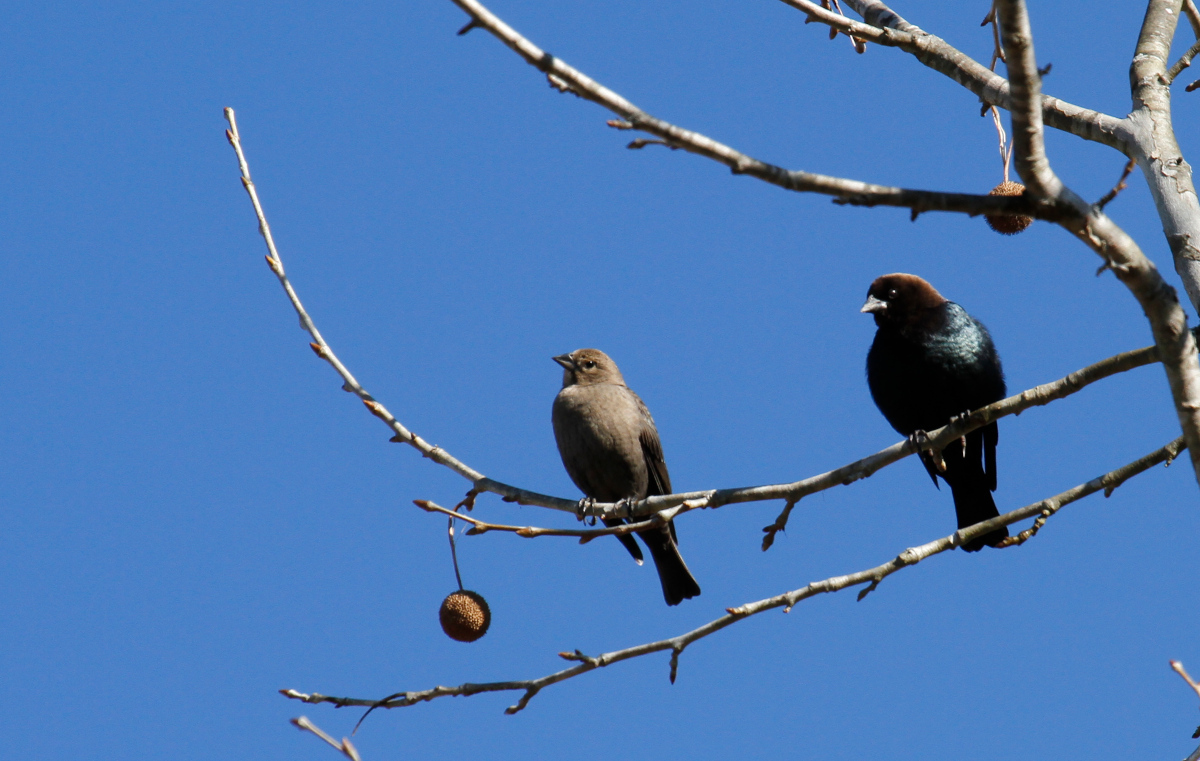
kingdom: Animalia
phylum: Chordata
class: Aves
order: Passeriformes
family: Icteridae
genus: Molothrus
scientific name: Molothrus ater
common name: Brown-headed cowbird
